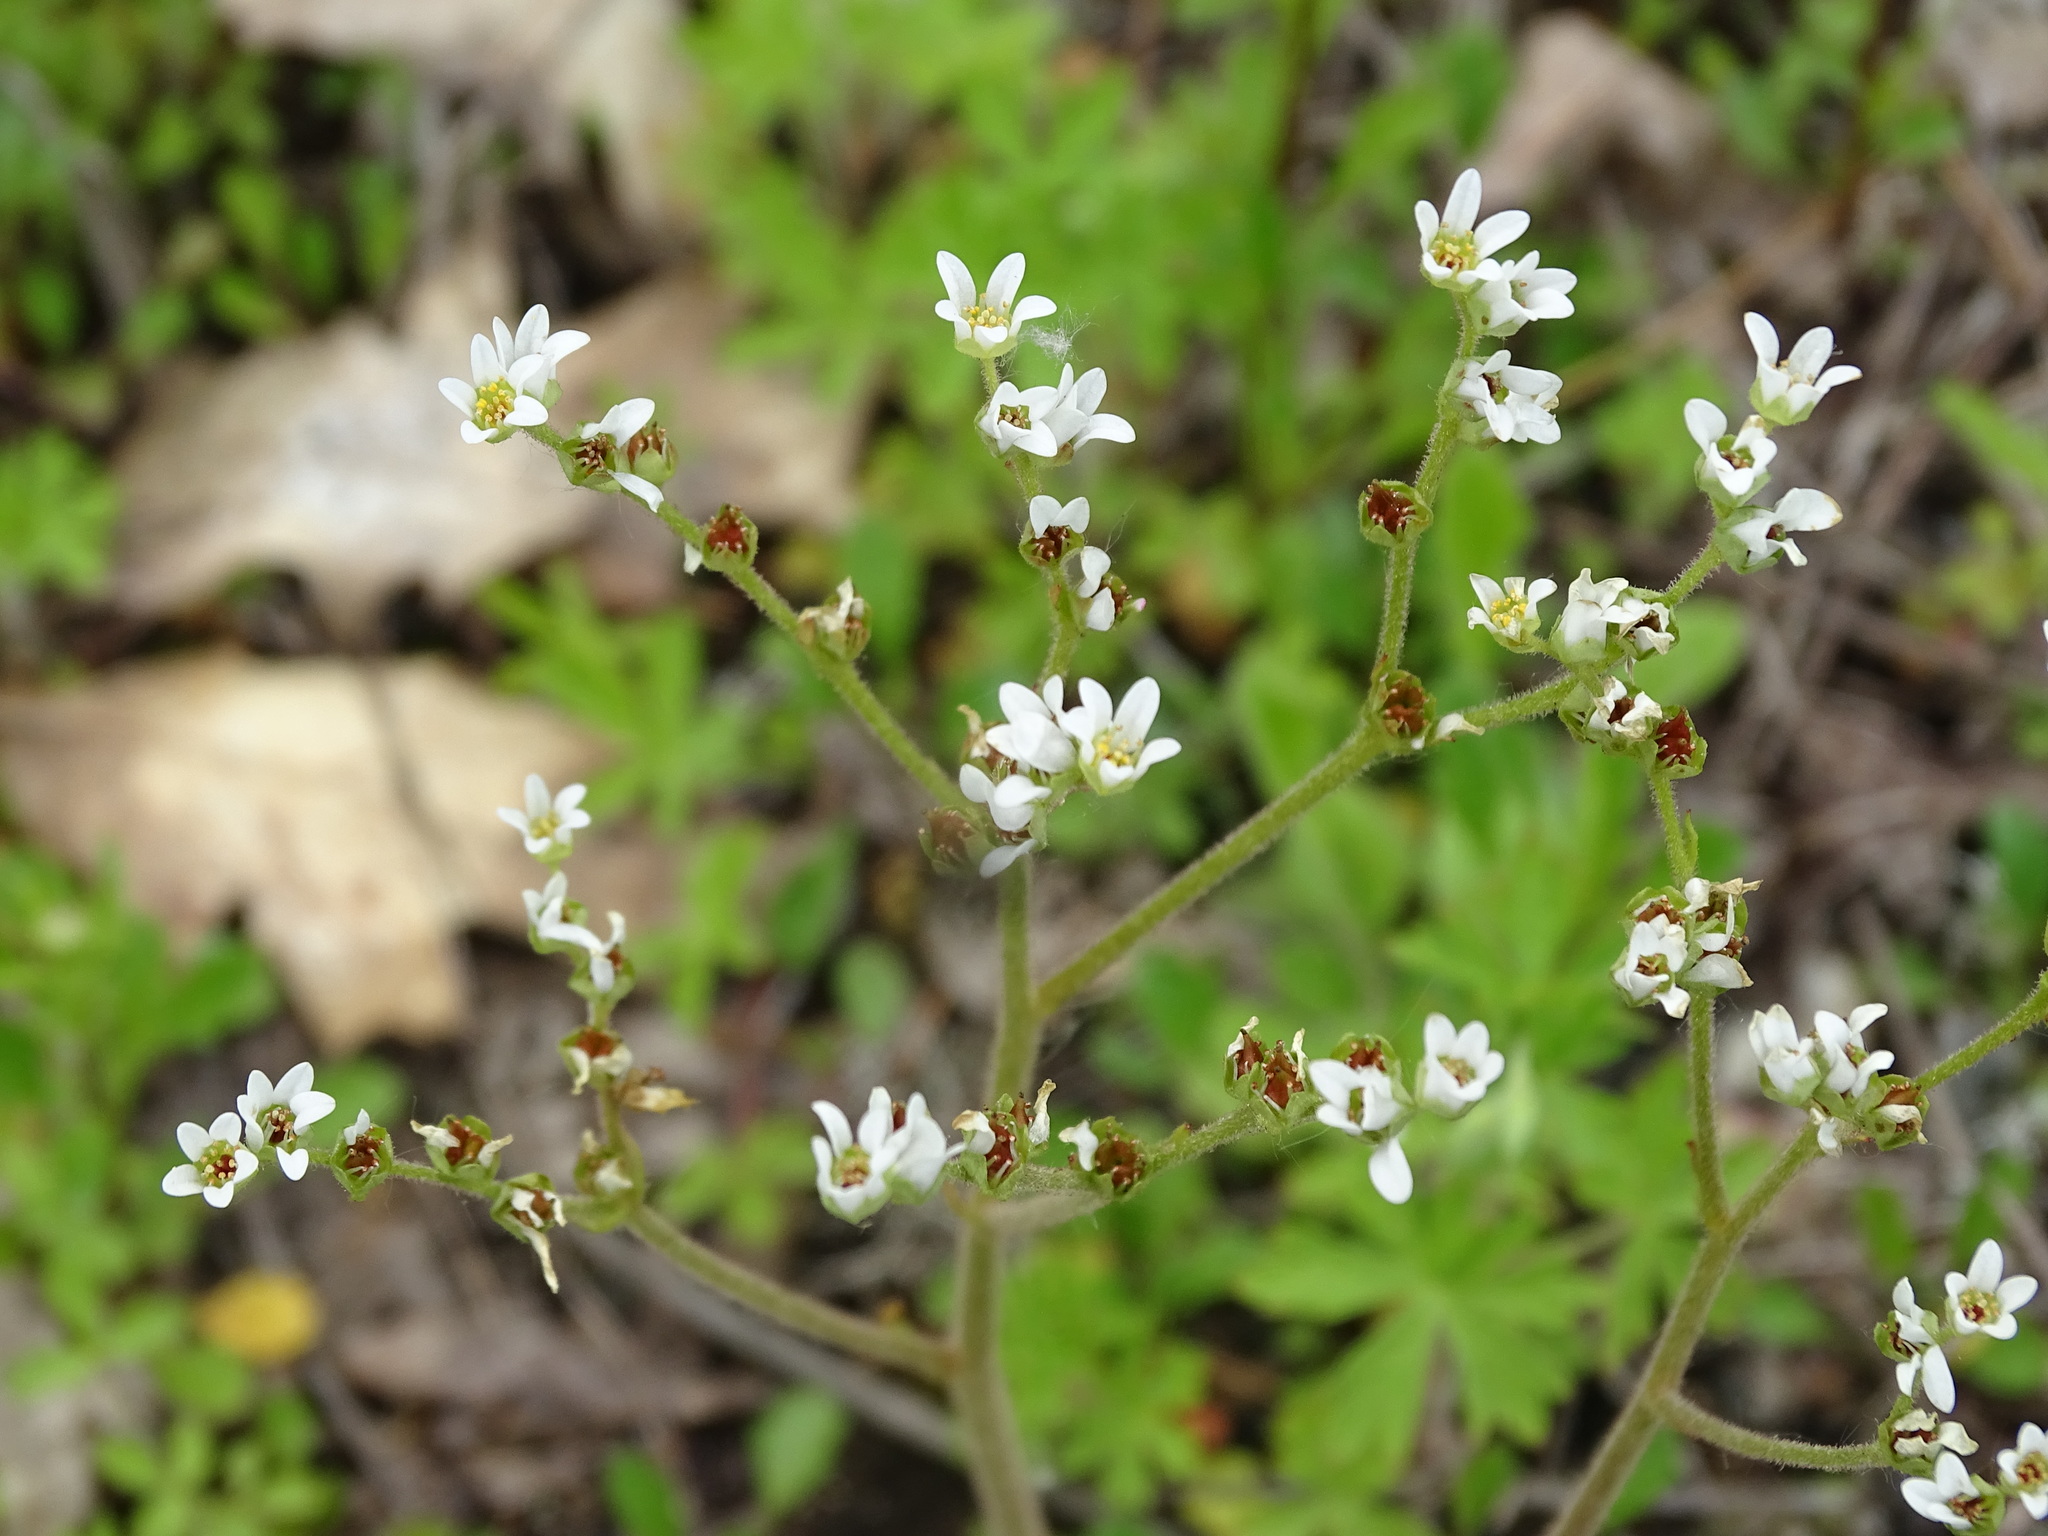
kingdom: Plantae
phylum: Tracheophyta
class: Magnoliopsida
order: Saxifragales
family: Saxifragaceae
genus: Micranthes
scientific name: Micranthes virginiensis
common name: Early saxifrage
